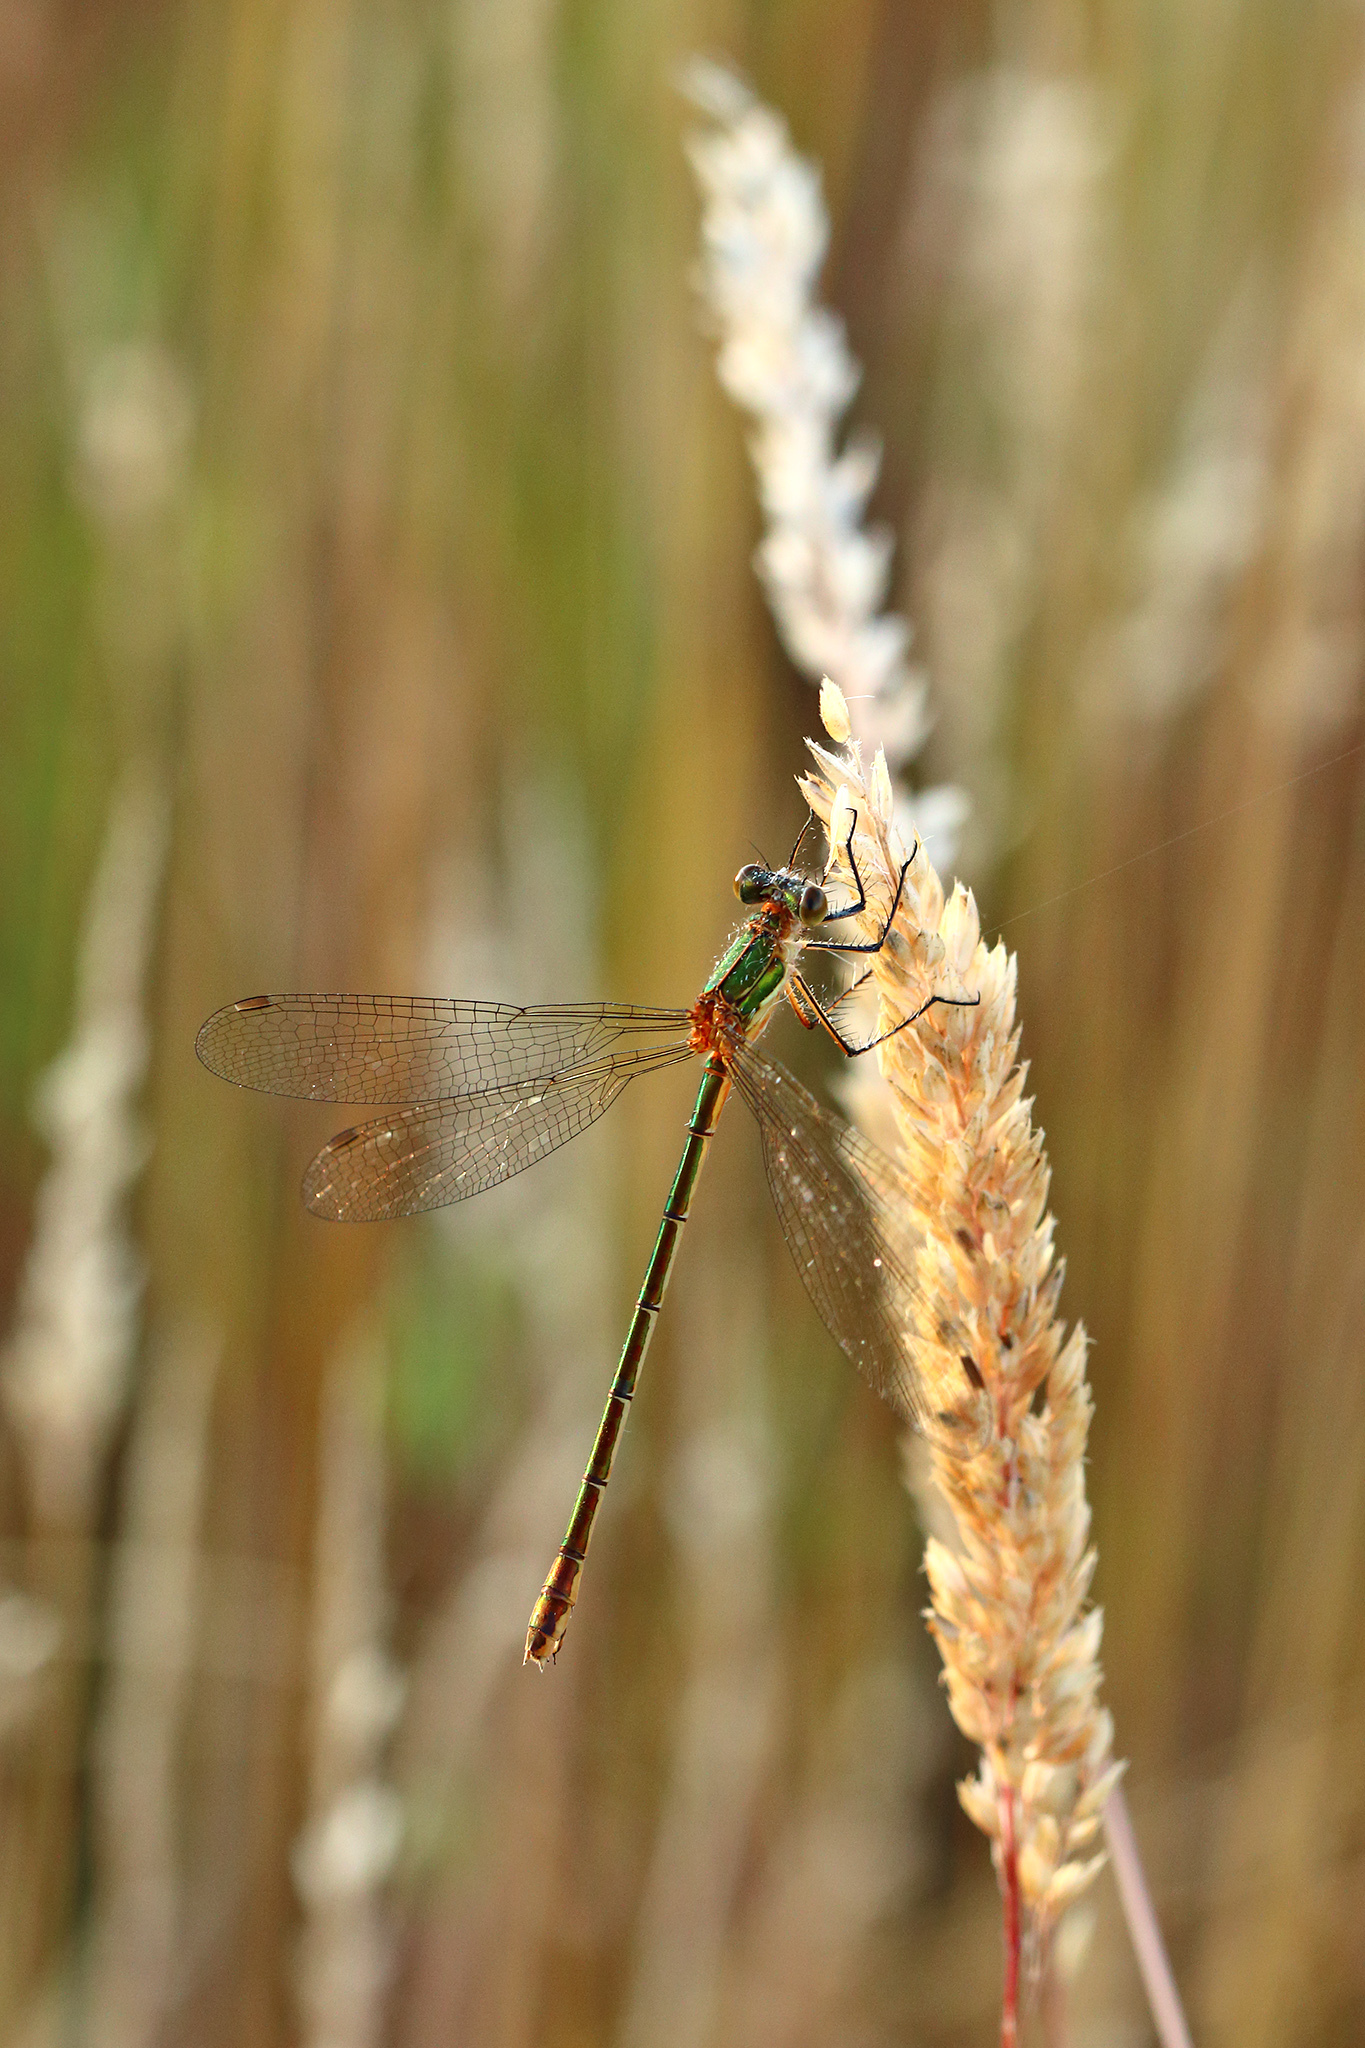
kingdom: Animalia
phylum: Arthropoda
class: Insecta
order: Odonata
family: Lestidae
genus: Lestes
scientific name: Lestes sponsa
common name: Common spreadwing
